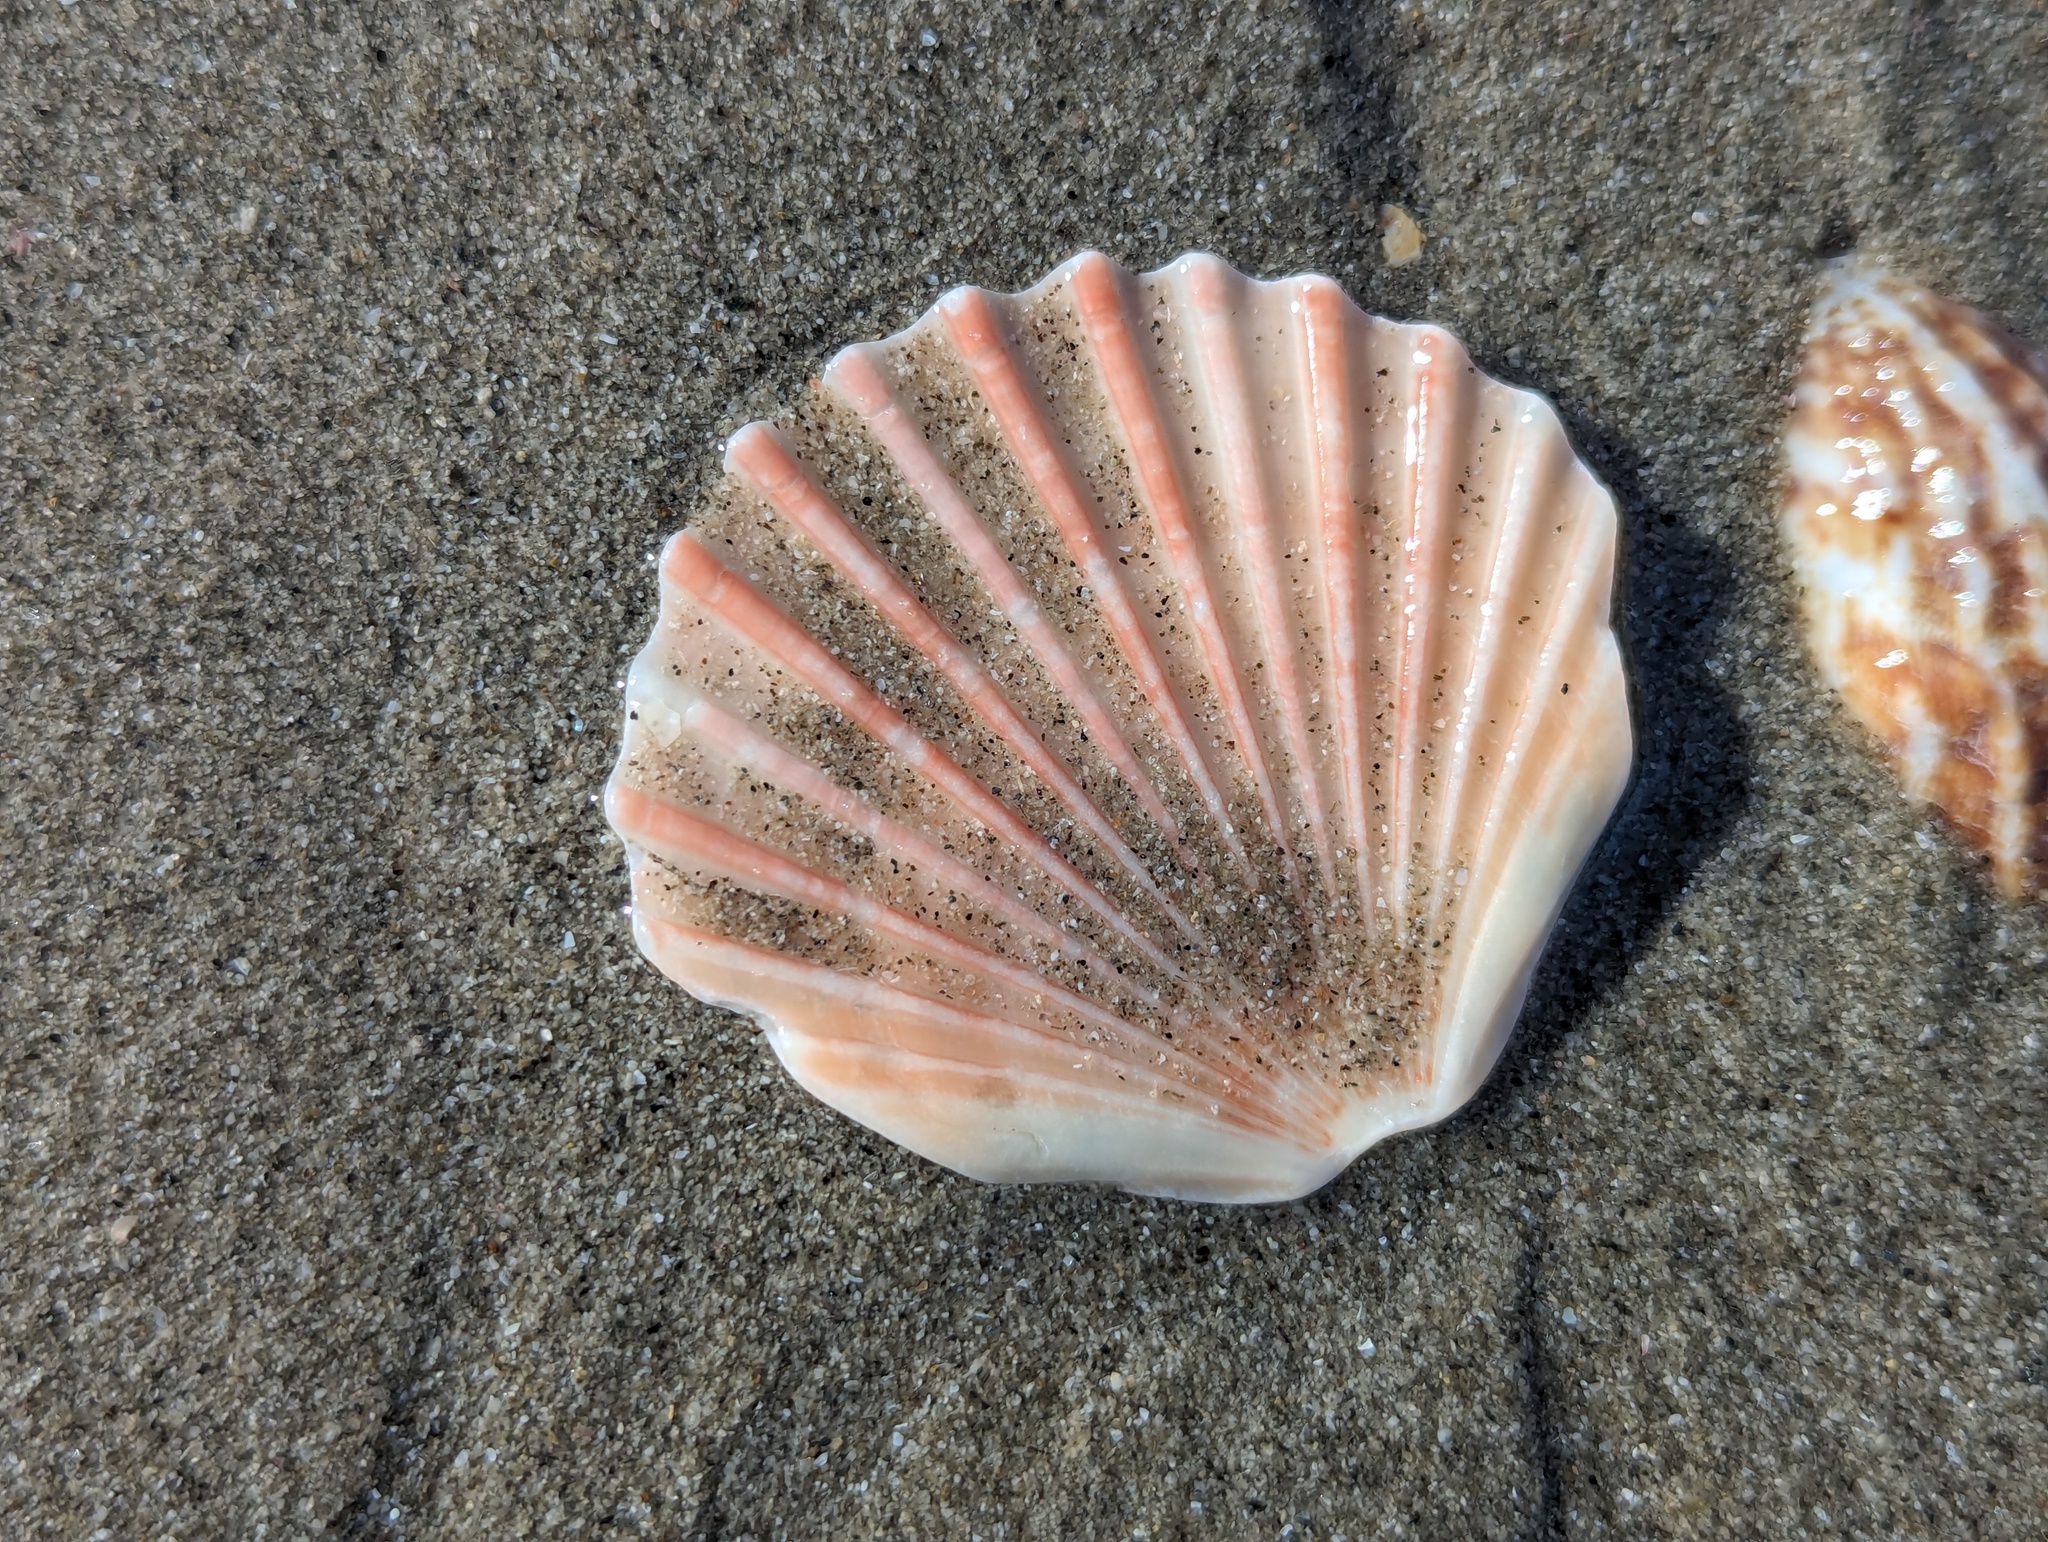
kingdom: Animalia
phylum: Mollusca
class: Bivalvia
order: Pectinida
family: Pectinidae
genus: Pecten
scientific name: Pecten novaezelandiae
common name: New zealand scallop
